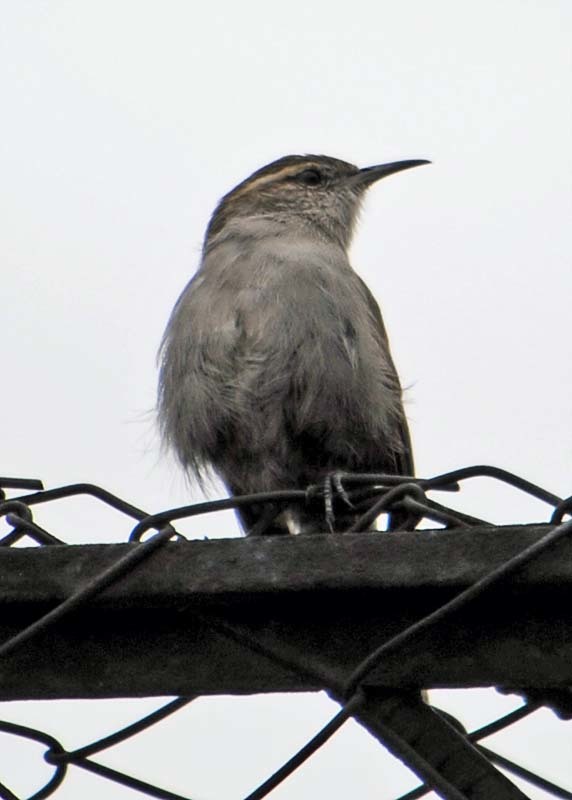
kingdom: Animalia
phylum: Chordata
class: Aves
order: Passeriformes
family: Troglodytidae
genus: Thryomanes
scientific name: Thryomanes bewickii
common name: Bewick's wren
